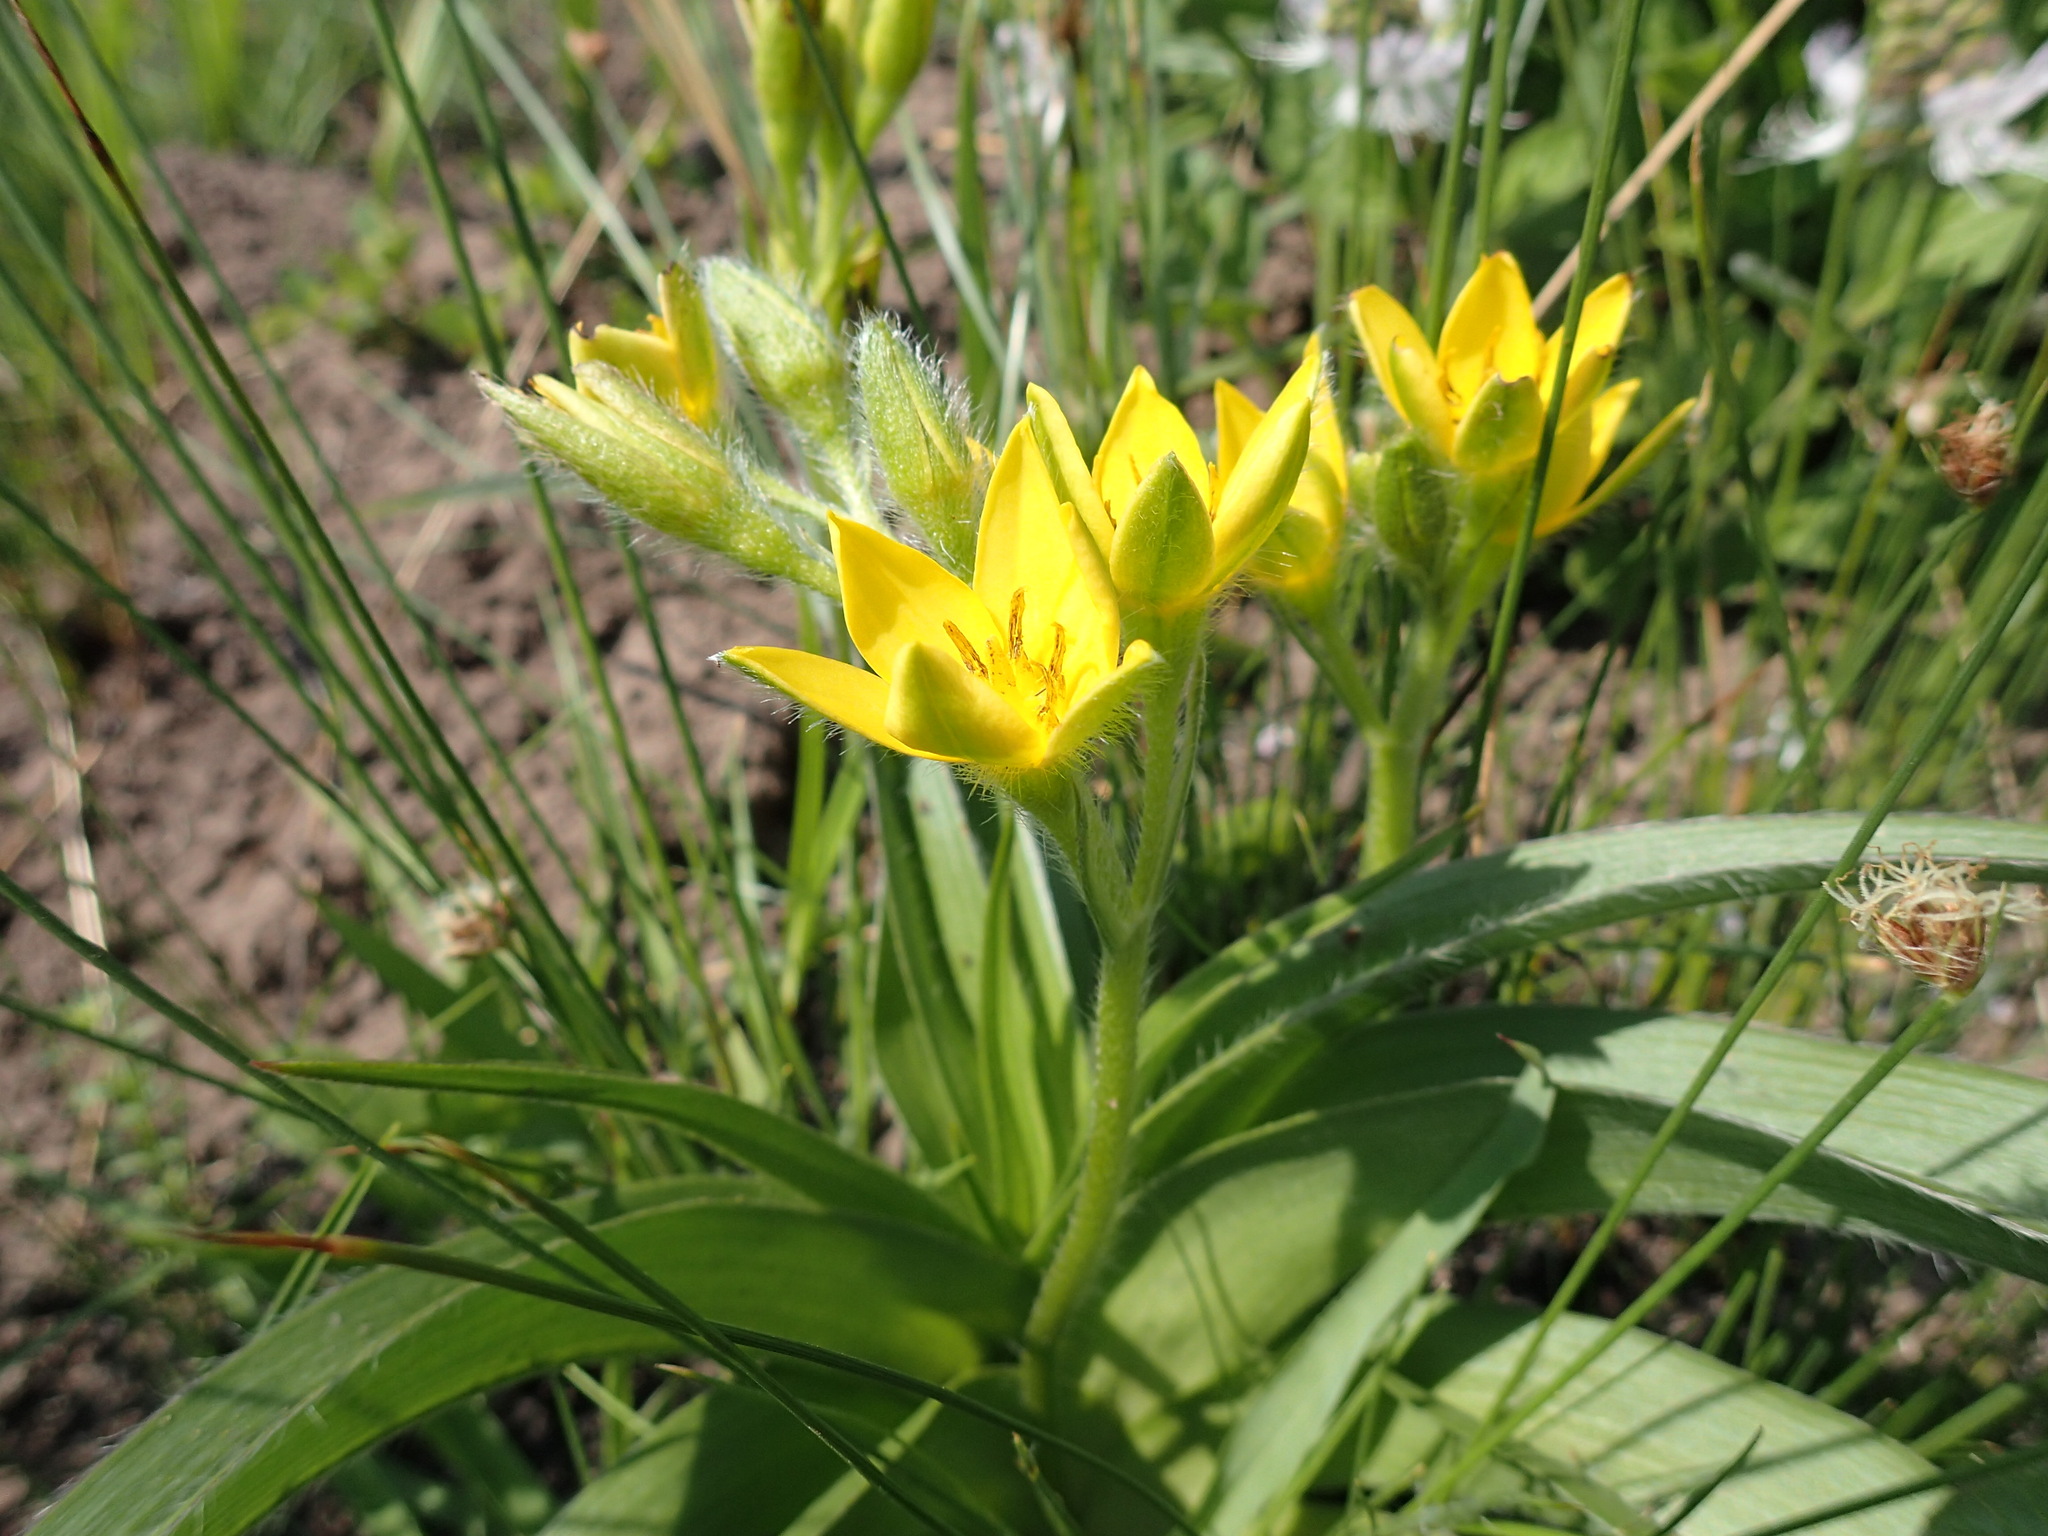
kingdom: Plantae
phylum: Tracheophyta
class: Liliopsida
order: Asparagales
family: Hypoxidaceae
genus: Hypoxis
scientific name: Hypoxis hemerocallidea
